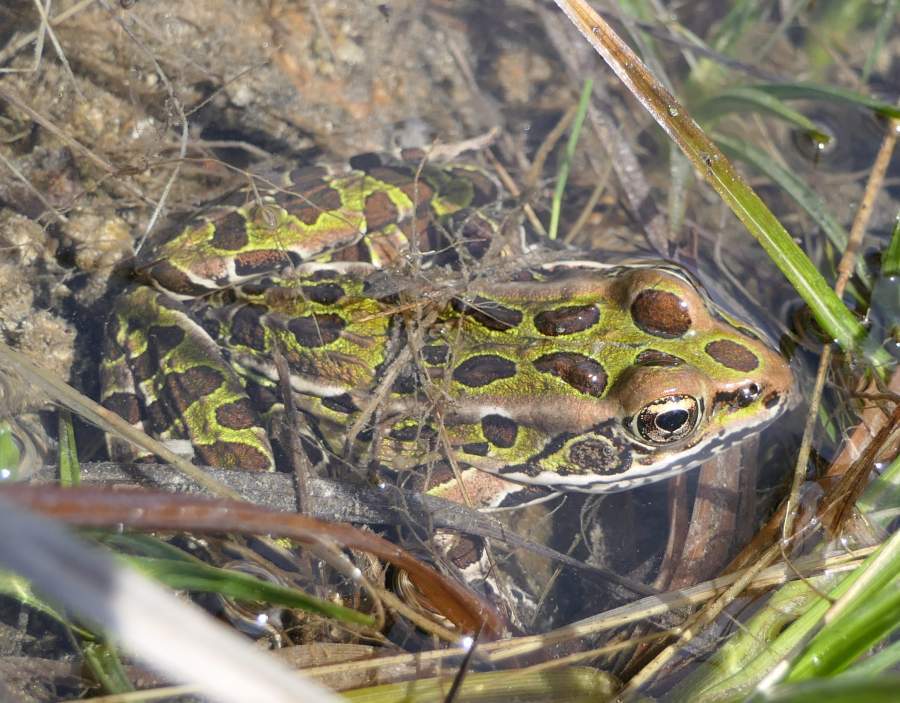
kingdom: Animalia
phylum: Chordata
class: Amphibia
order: Anura
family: Ranidae
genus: Lithobates
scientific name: Lithobates pipiens
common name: Northern leopard frog
